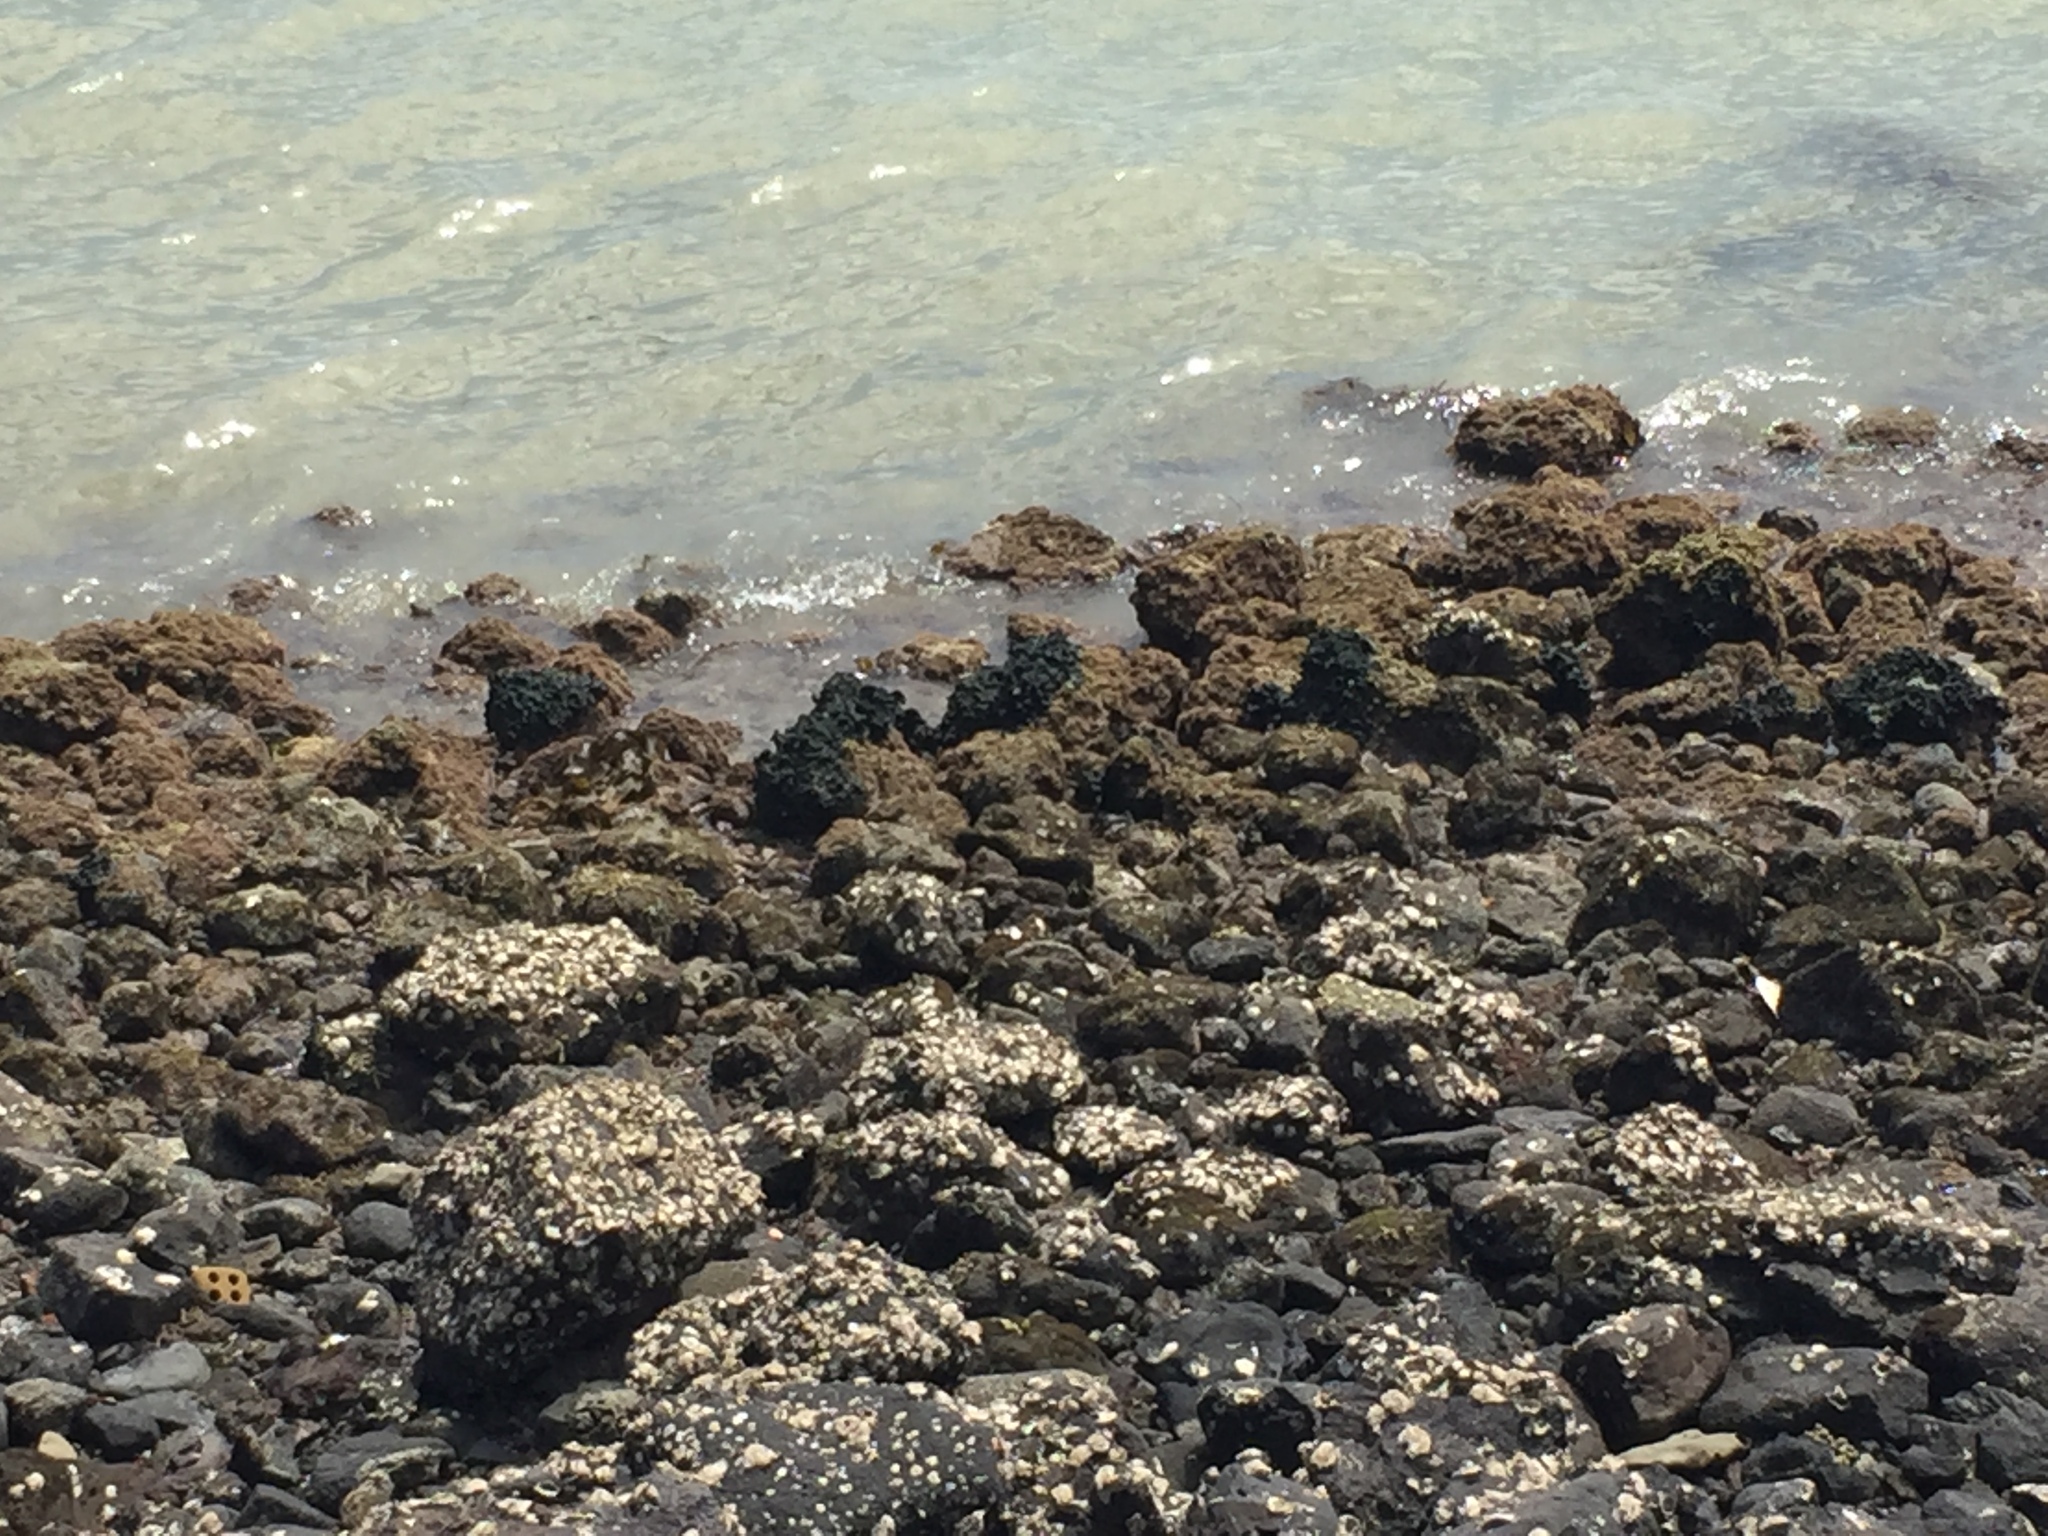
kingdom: Plantae
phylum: Chlorophyta
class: Ulvophyceae
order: Bryopsidales
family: Codiaceae
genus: Codium
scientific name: Codium convolutum
